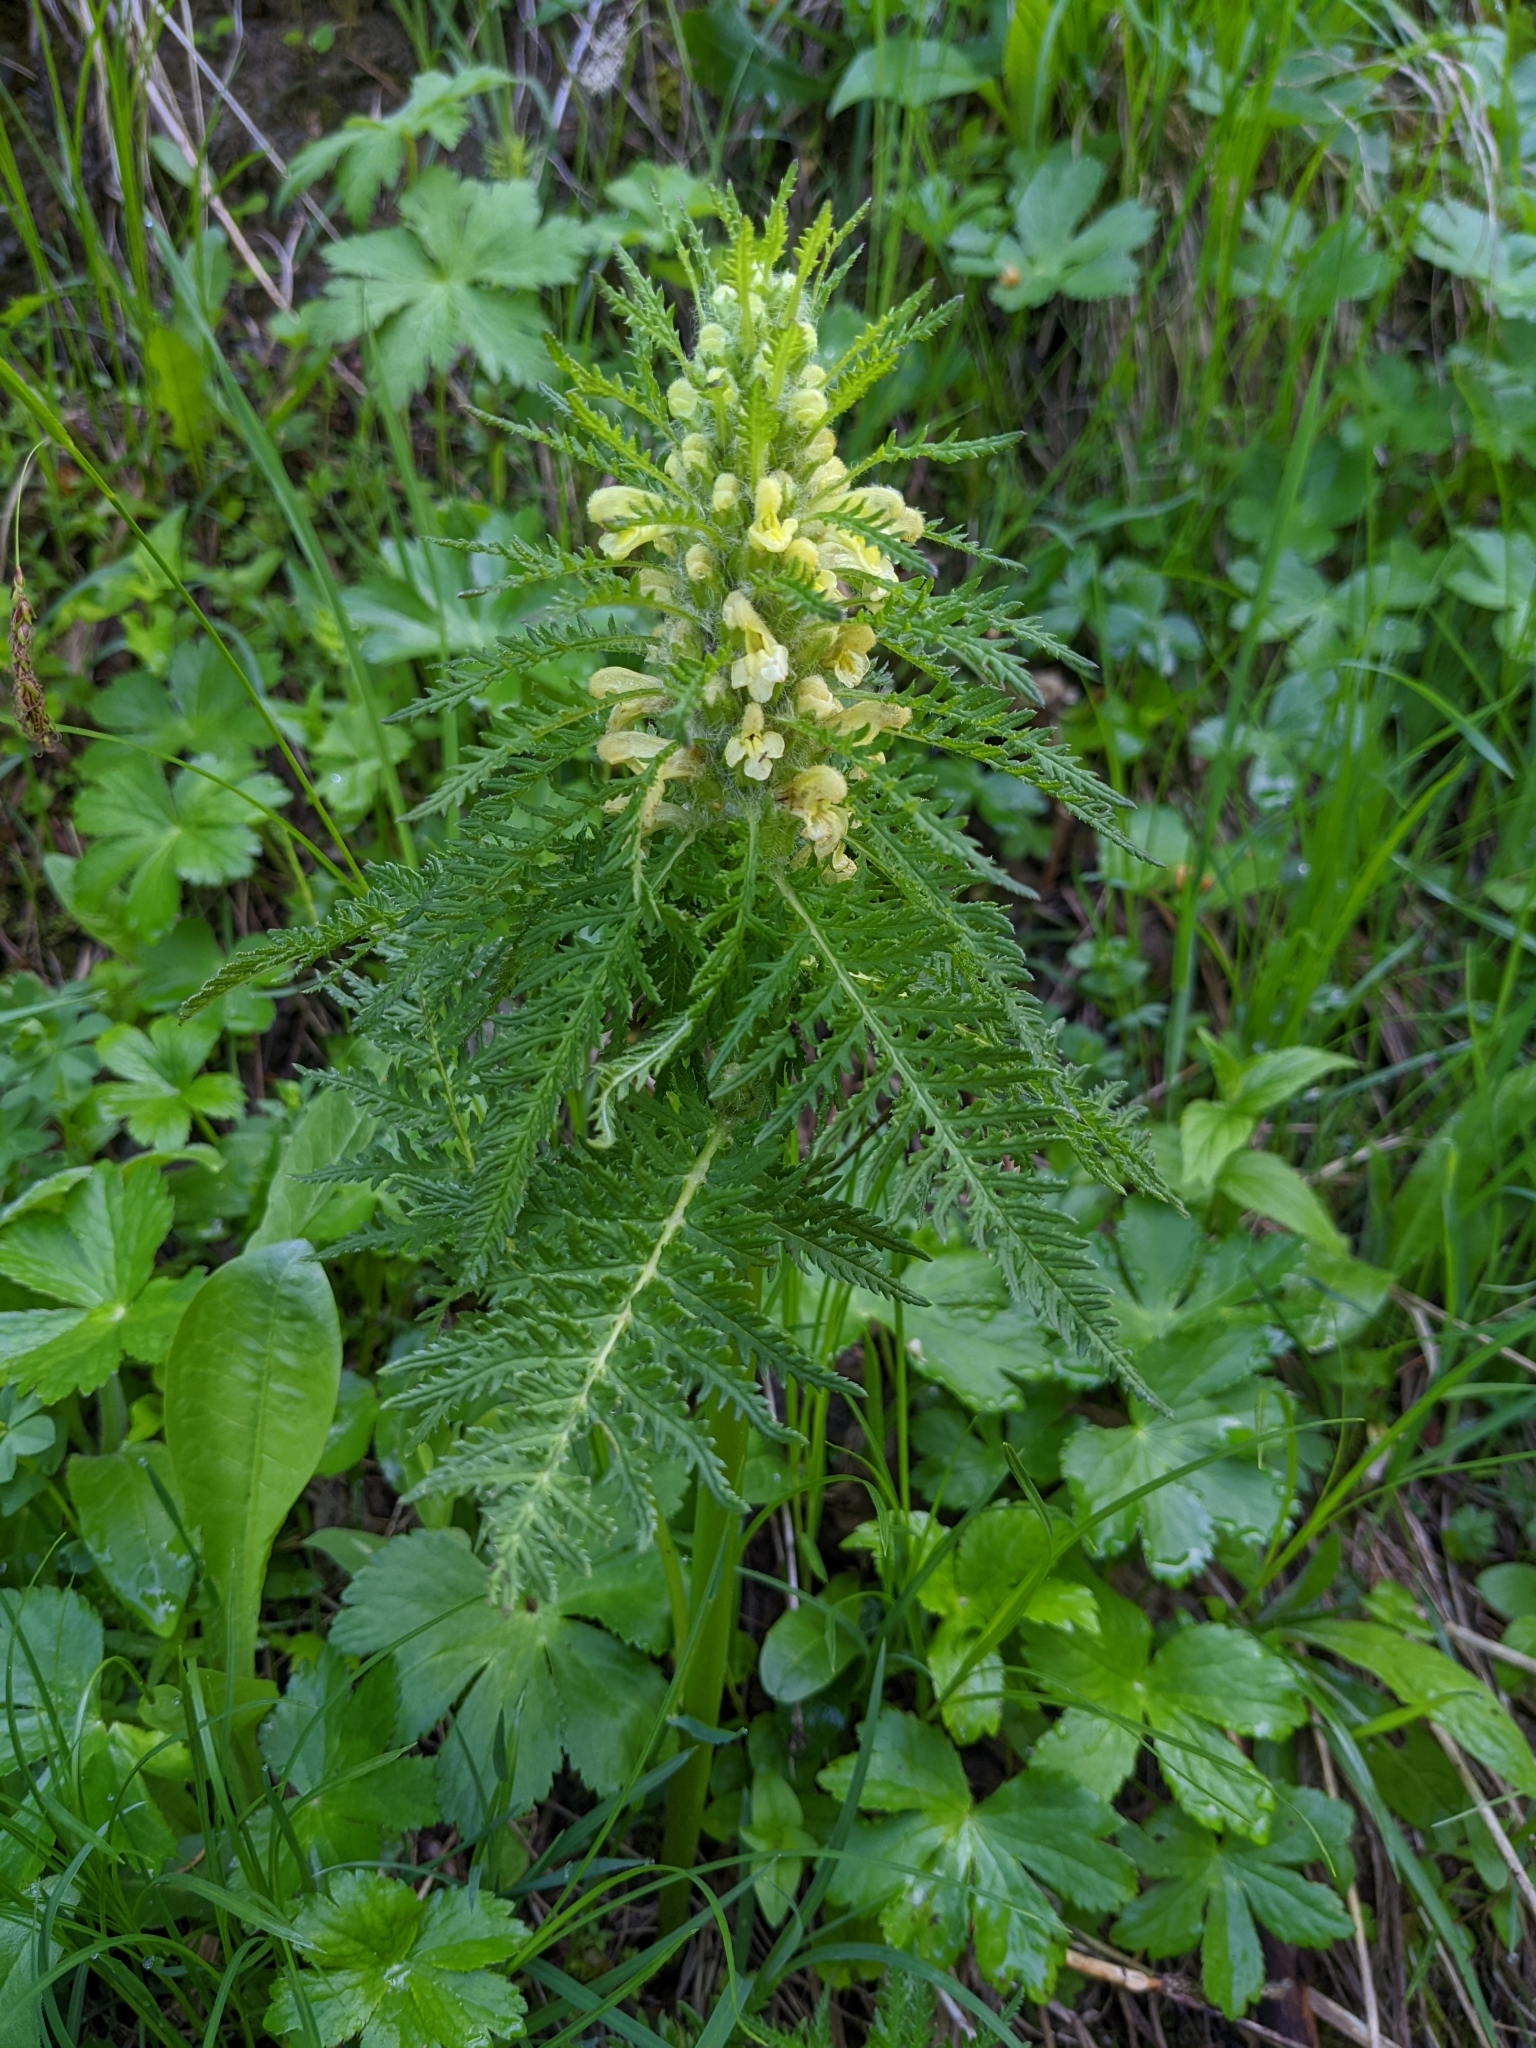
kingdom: Plantae
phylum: Tracheophyta
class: Magnoliopsida
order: Lamiales
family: Orobanchaceae
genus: Pedicularis
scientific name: Pedicularis foliosa
